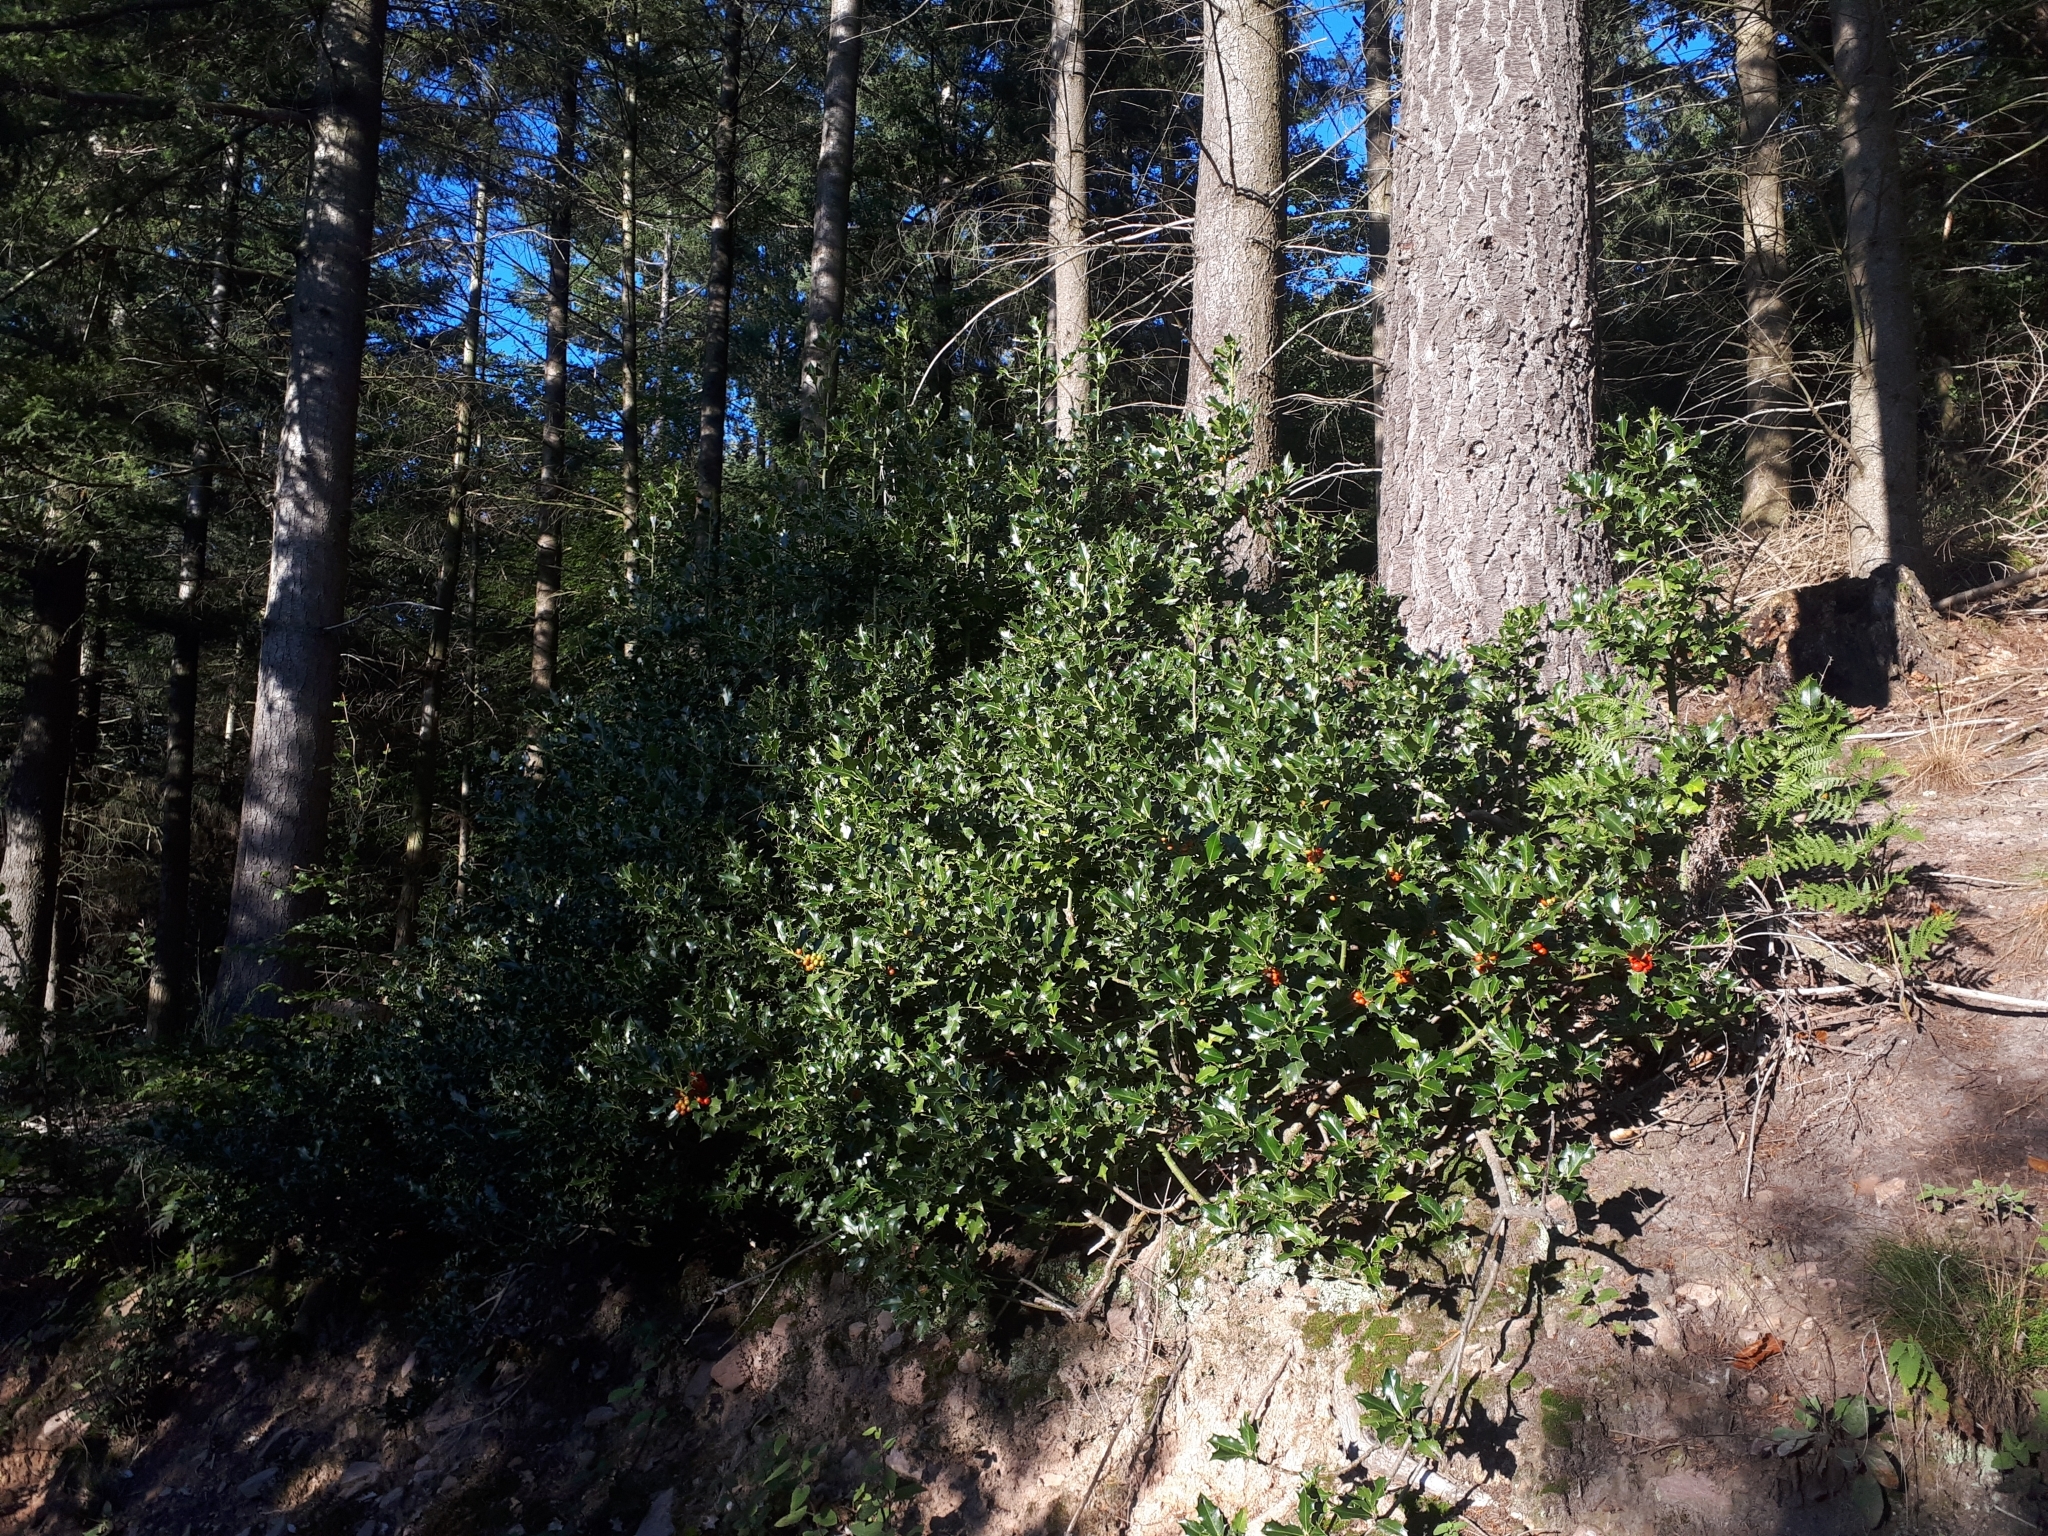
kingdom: Plantae
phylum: Tracheophyta
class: Magnoliopsida
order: Aquifoliales
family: Aquifoliaceae
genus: Ilex
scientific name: Ilex aquifolium
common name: English holly
